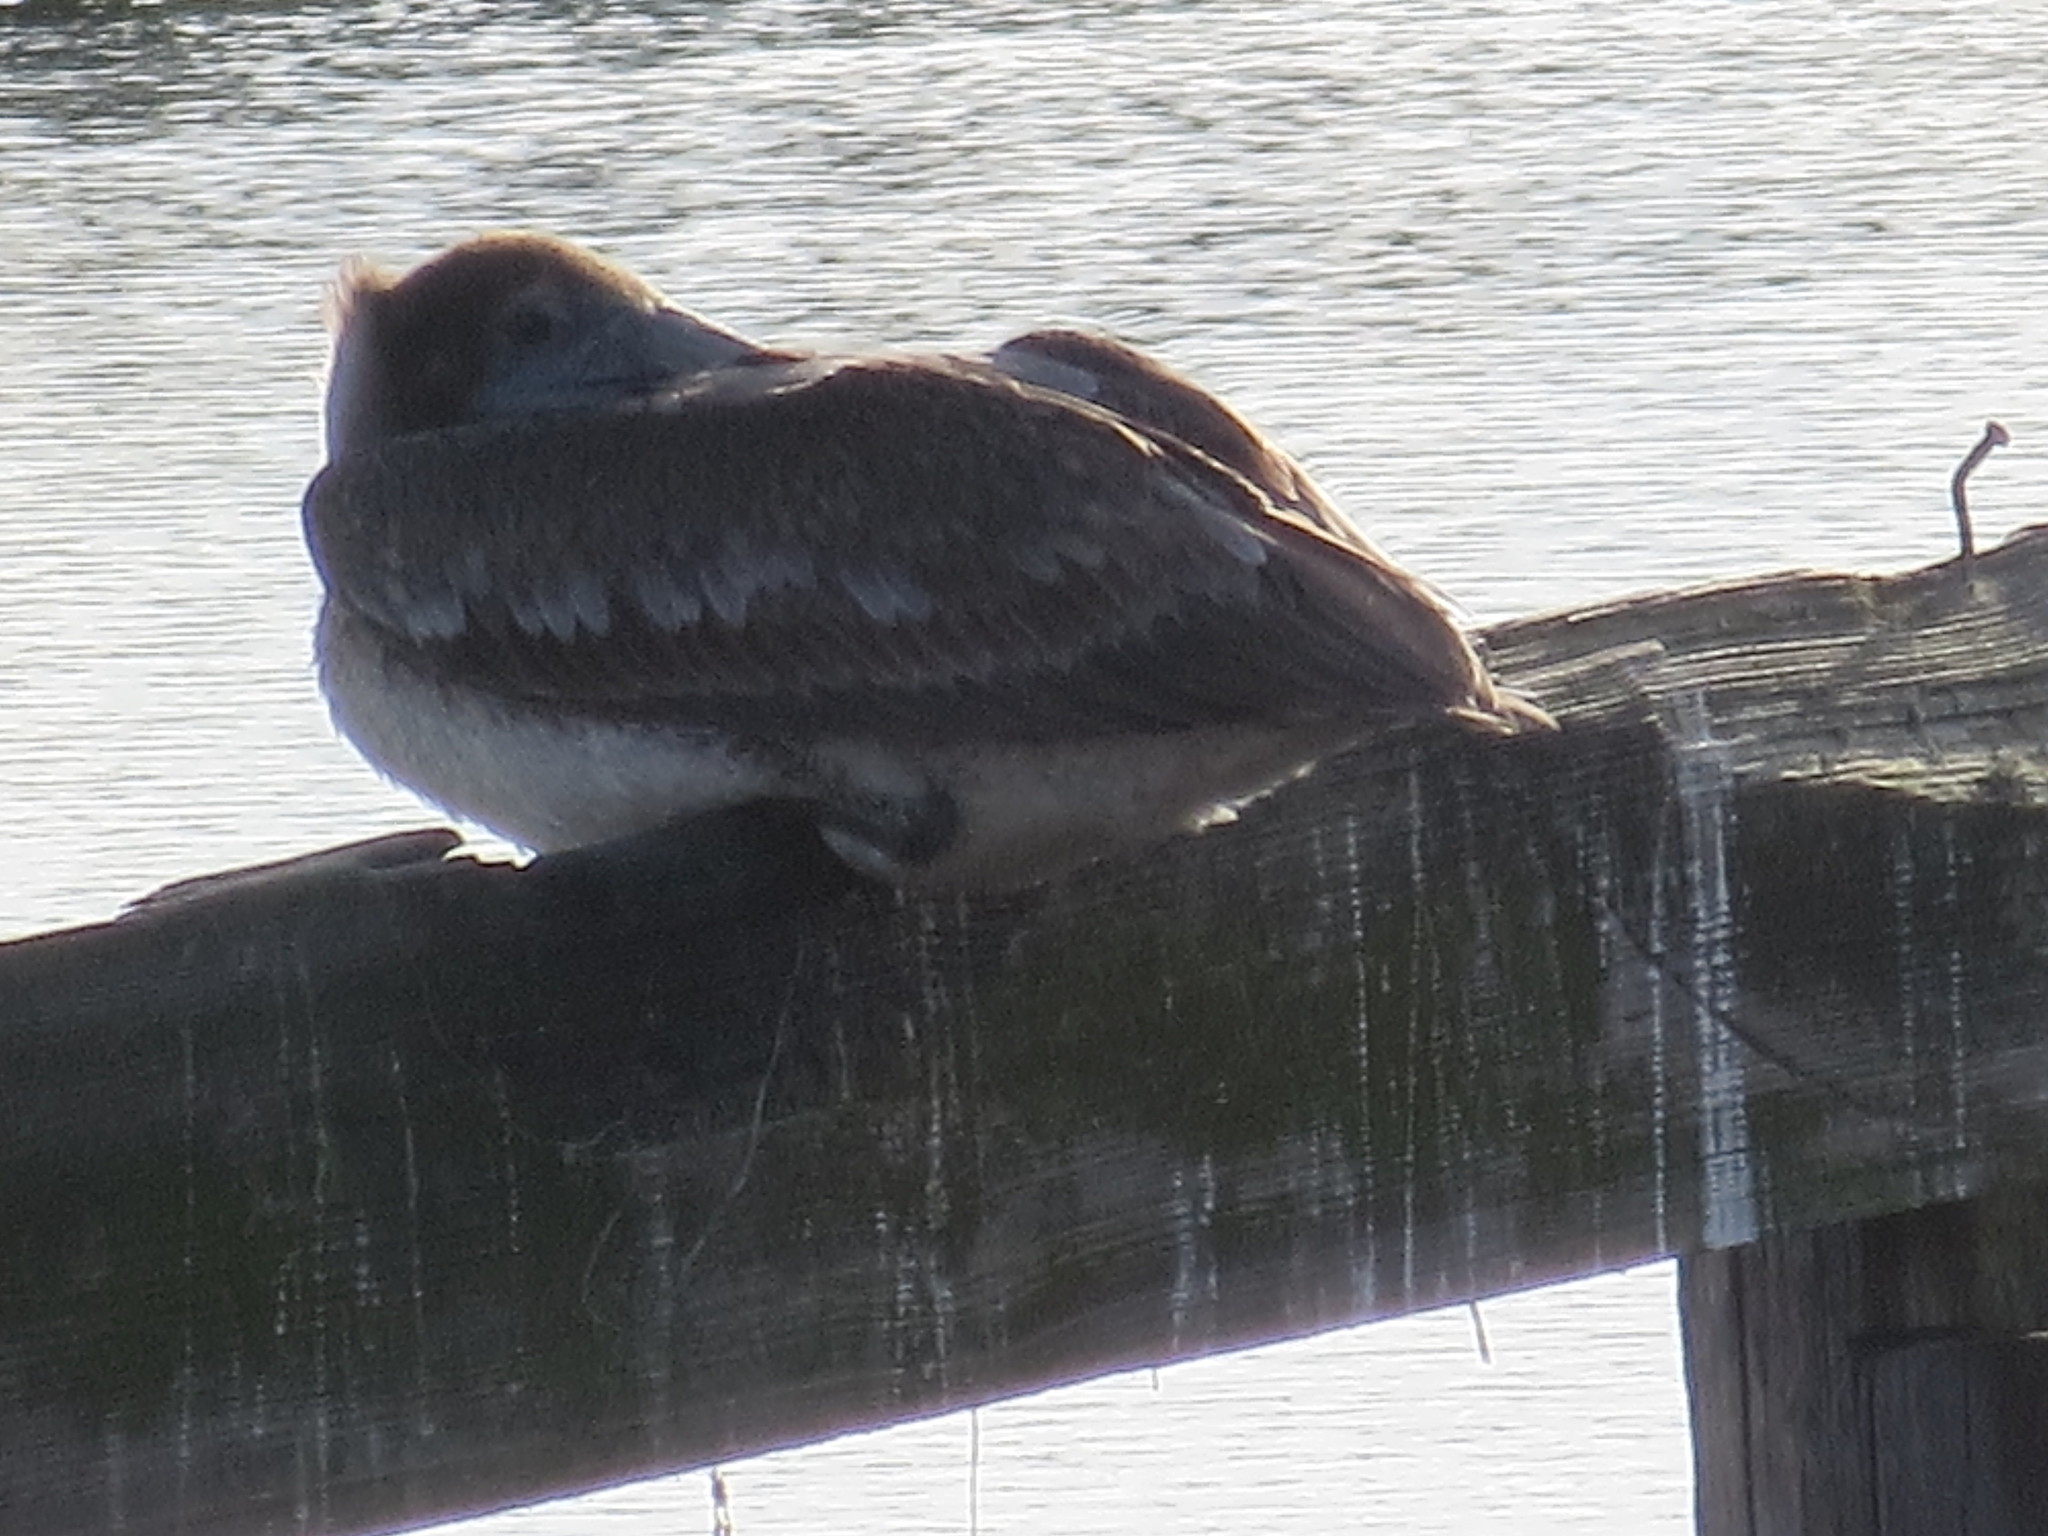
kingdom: Animalia
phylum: Chordata
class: Aves
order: Pelecaniformes
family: Pelecanidae
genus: Pelecanus
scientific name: Pelecanus occidentalis
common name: Brown pelican
